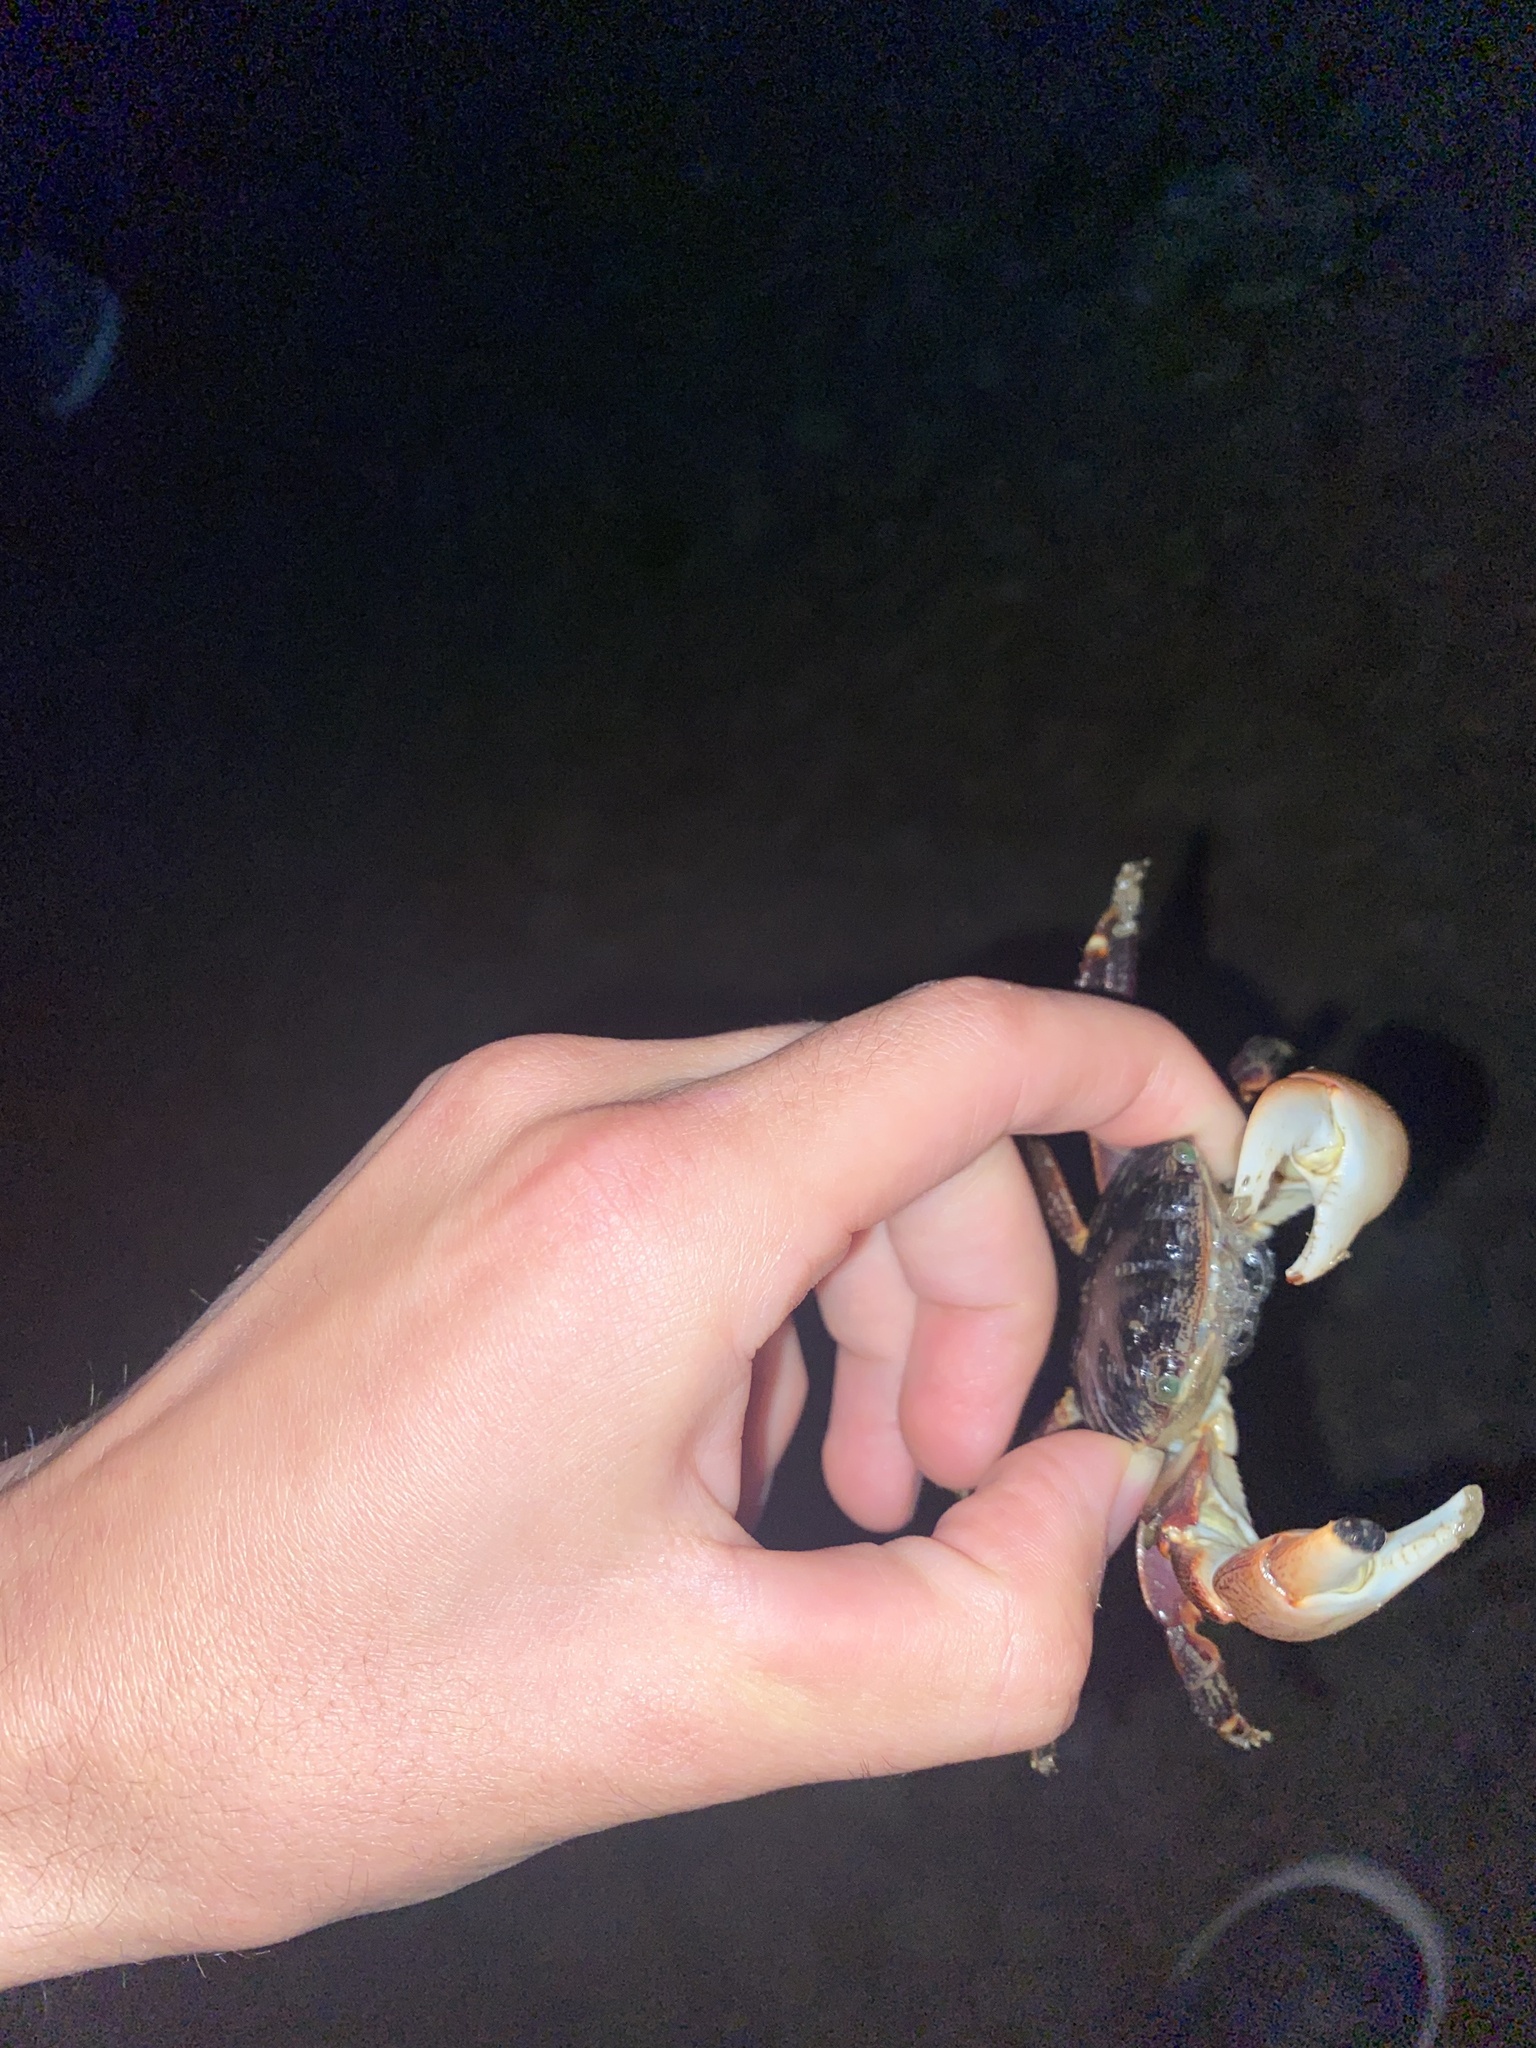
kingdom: Animalia
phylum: Arthropoda
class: Malacostraca
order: Decapoda
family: Grapsidae
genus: Pachygrapsus
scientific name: Pachygrapsus crassipes
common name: Striped shore crab
